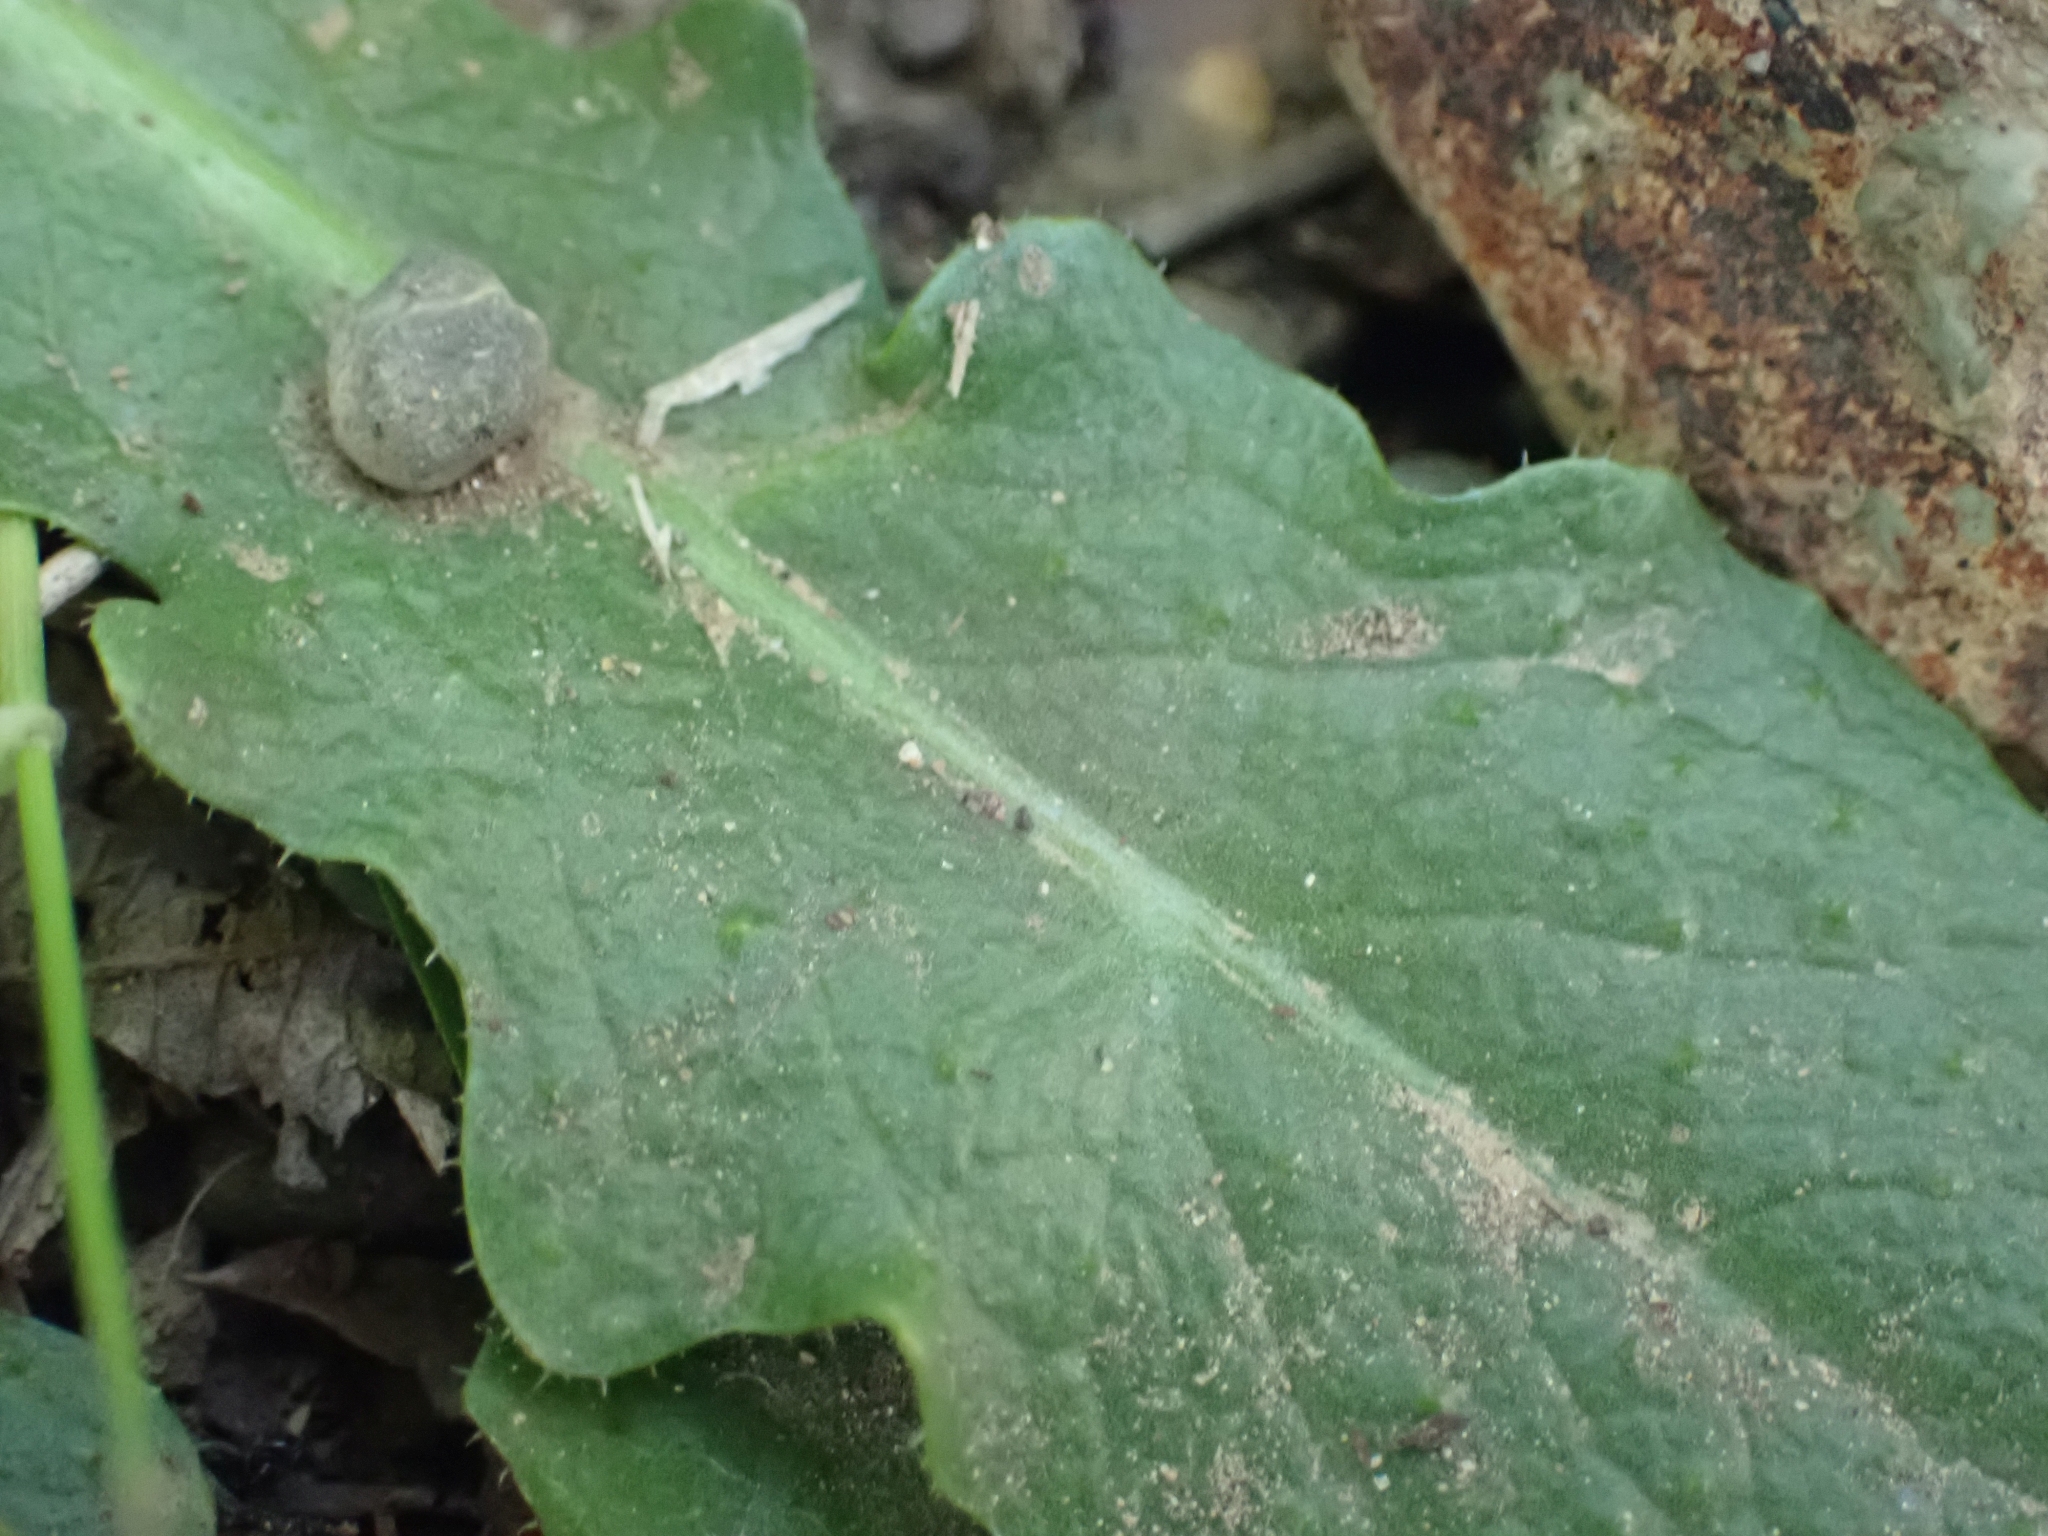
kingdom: Plantae
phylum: Tracheophyta
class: Magnoliopsida
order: Asterales
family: Asteraceae
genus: Hypochaeris
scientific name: Hypochaeris radicata
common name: Flatweed
